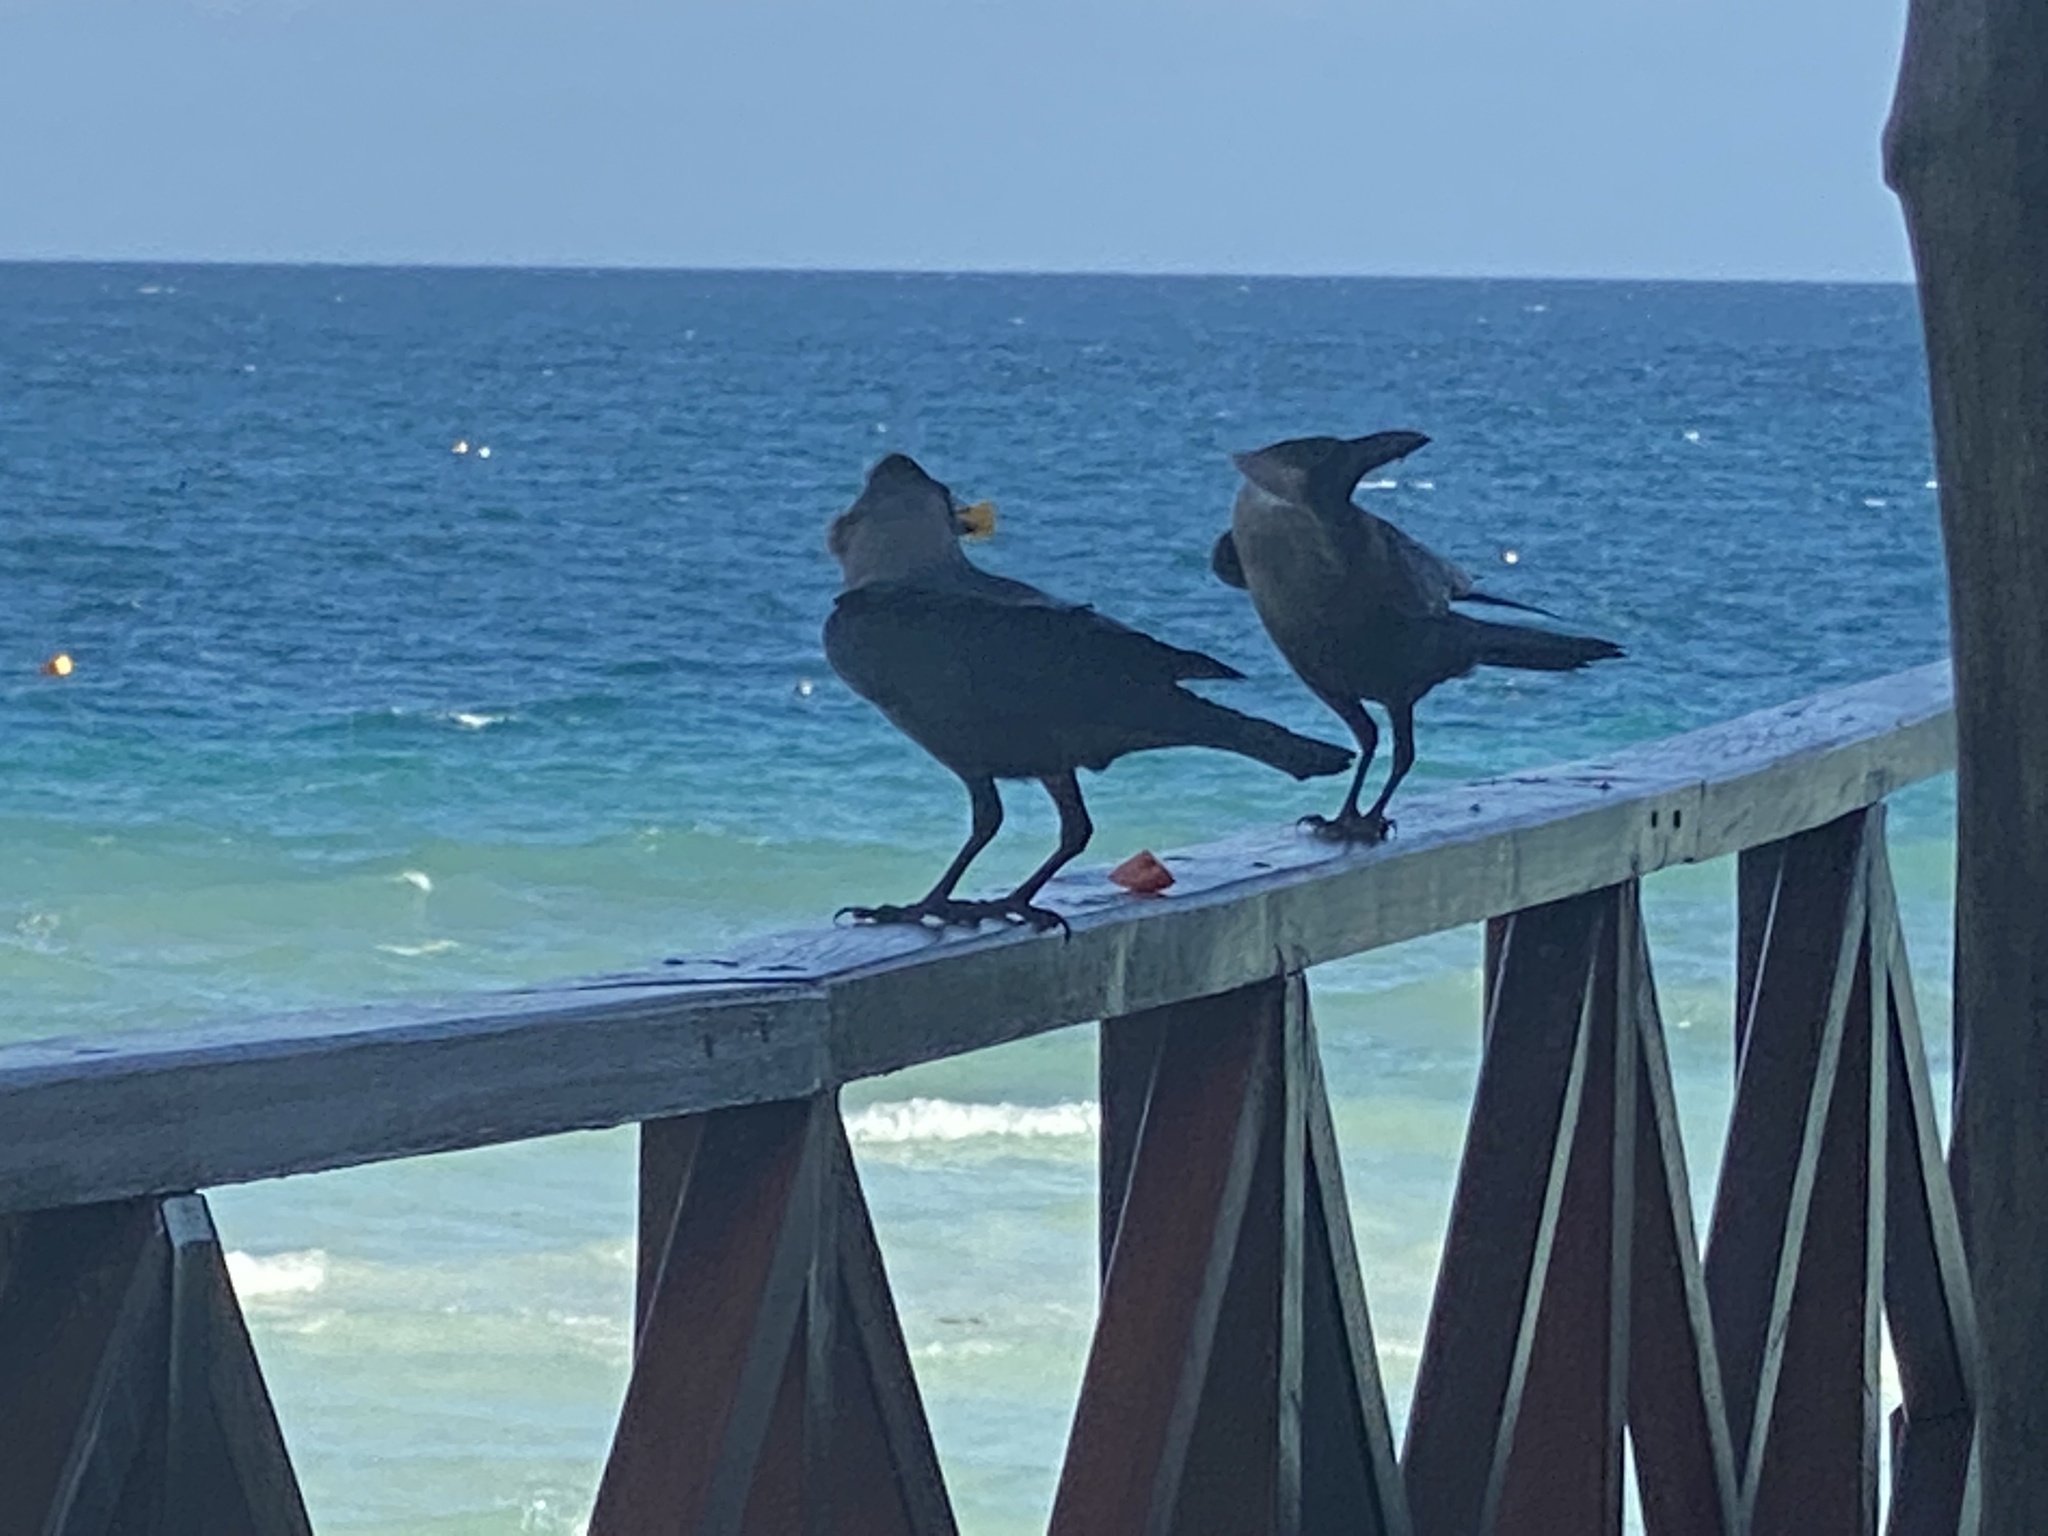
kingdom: Animalia
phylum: Chordata
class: Aves
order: Passeriformes
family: Corvidae
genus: Corvus
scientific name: Corvus splendens
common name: House crow
